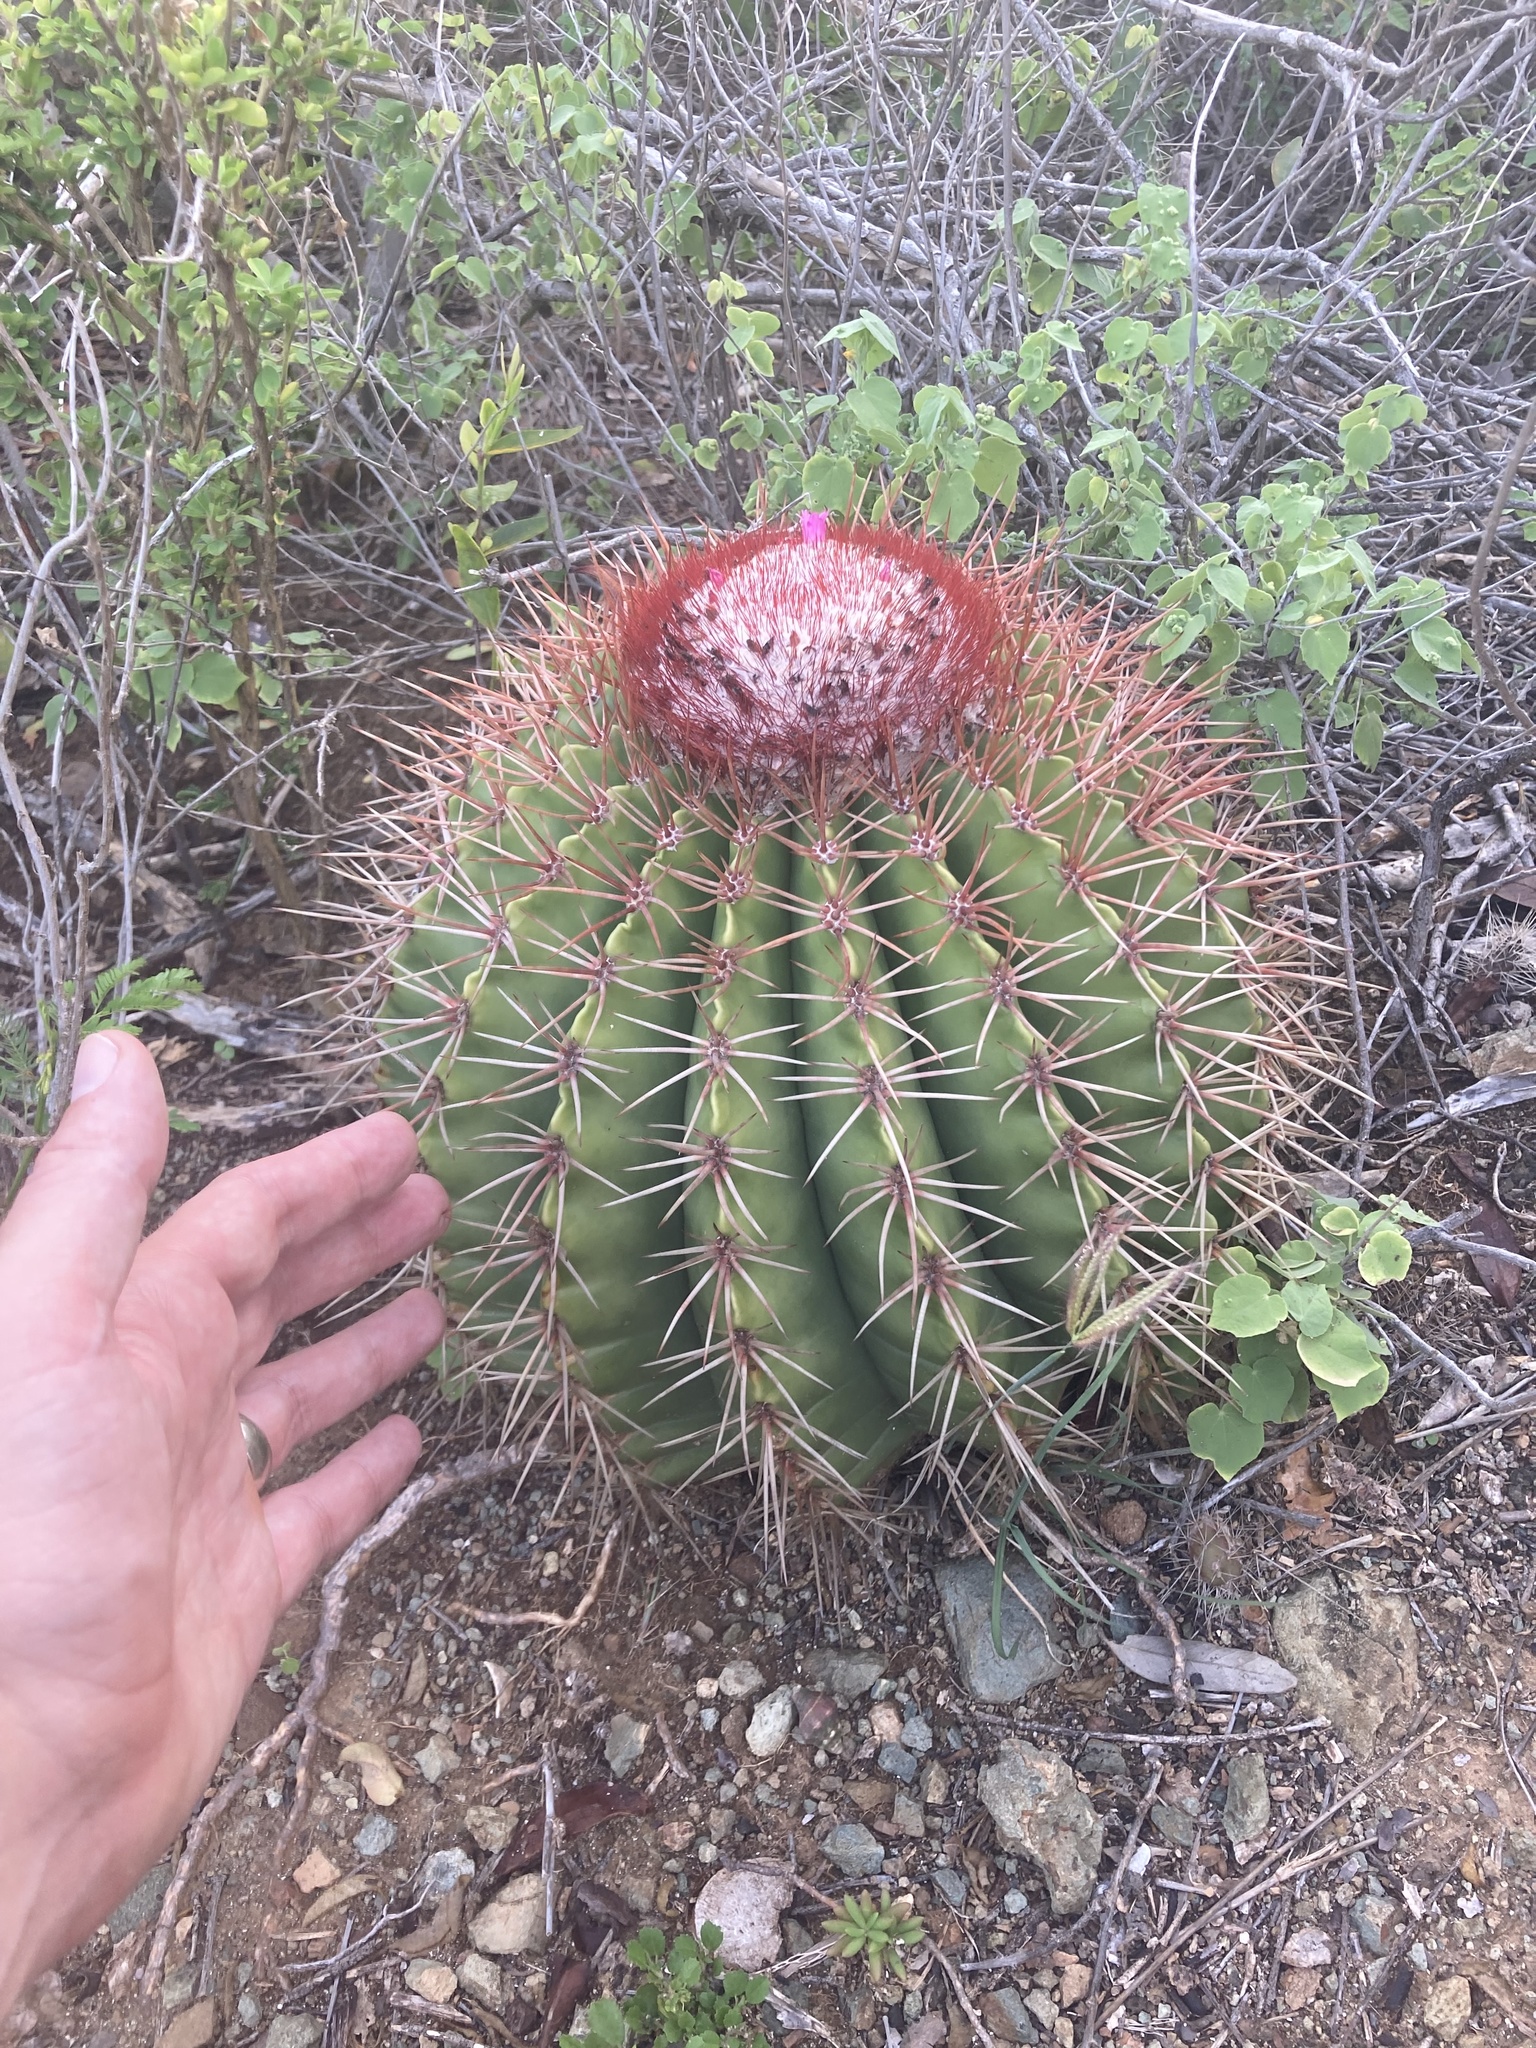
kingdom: Plantae
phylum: Tracheophyta
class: Magnoliopsida
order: Caryophyllales
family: Cactaceae
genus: Melocactus
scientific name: Melocactus intortus
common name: Barrel cactus
